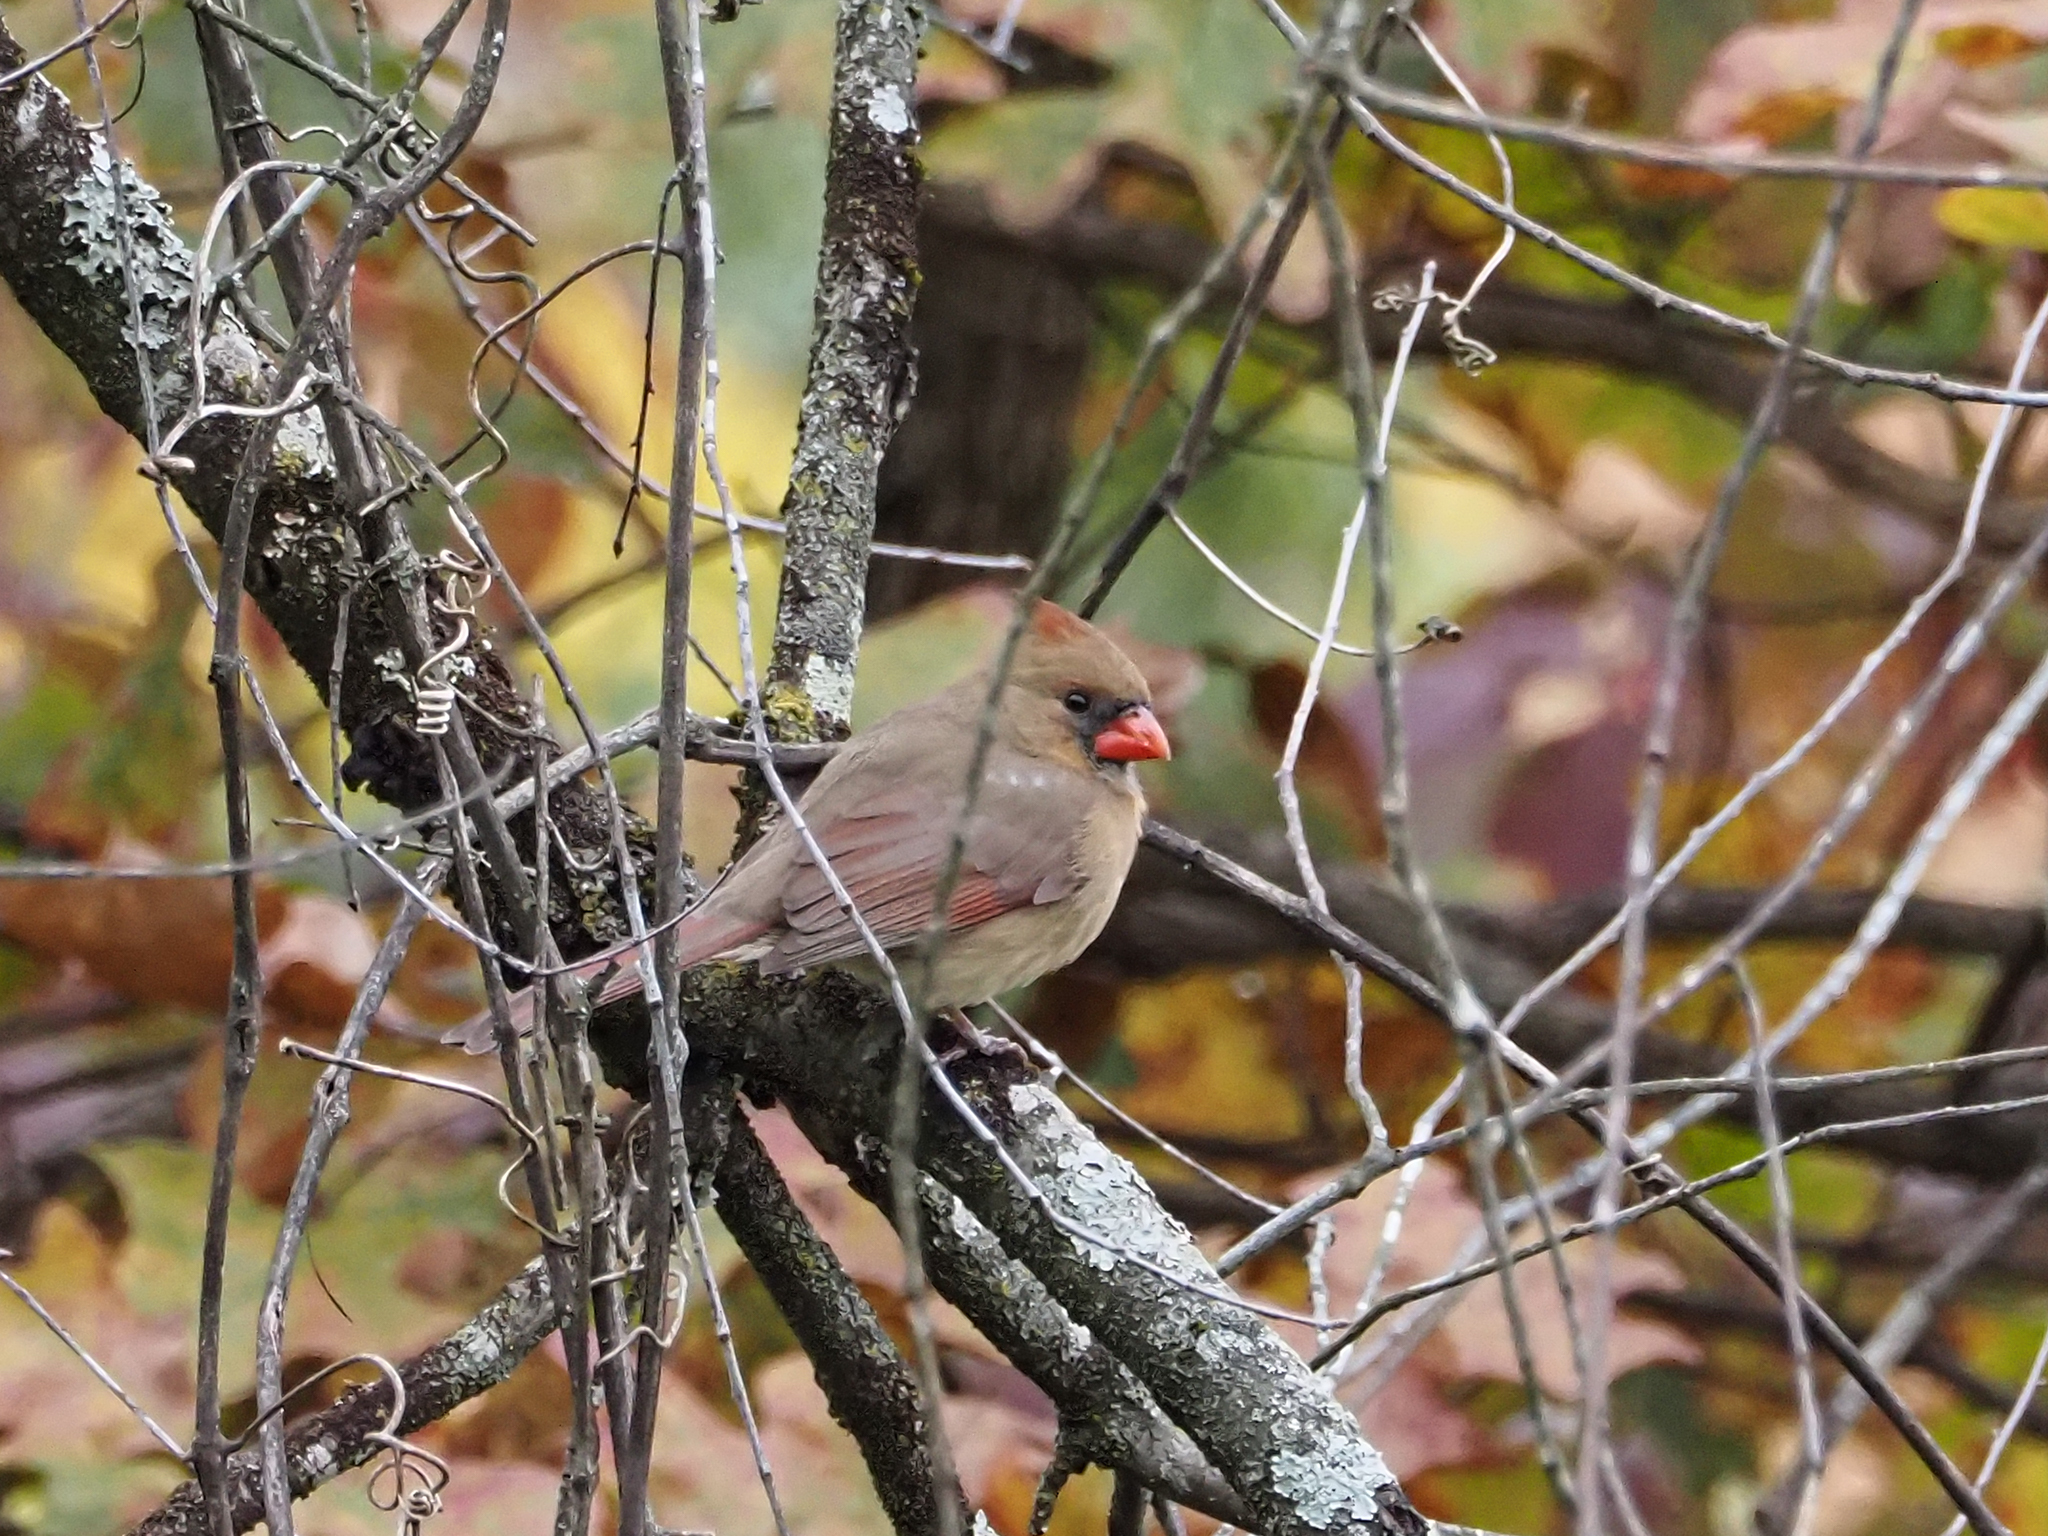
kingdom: Animalia
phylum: Chordata
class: Aves
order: Passeriformes
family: Cardinalidae
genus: Cardinalis
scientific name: Cardinalis cardinalis
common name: Northern cardinal
